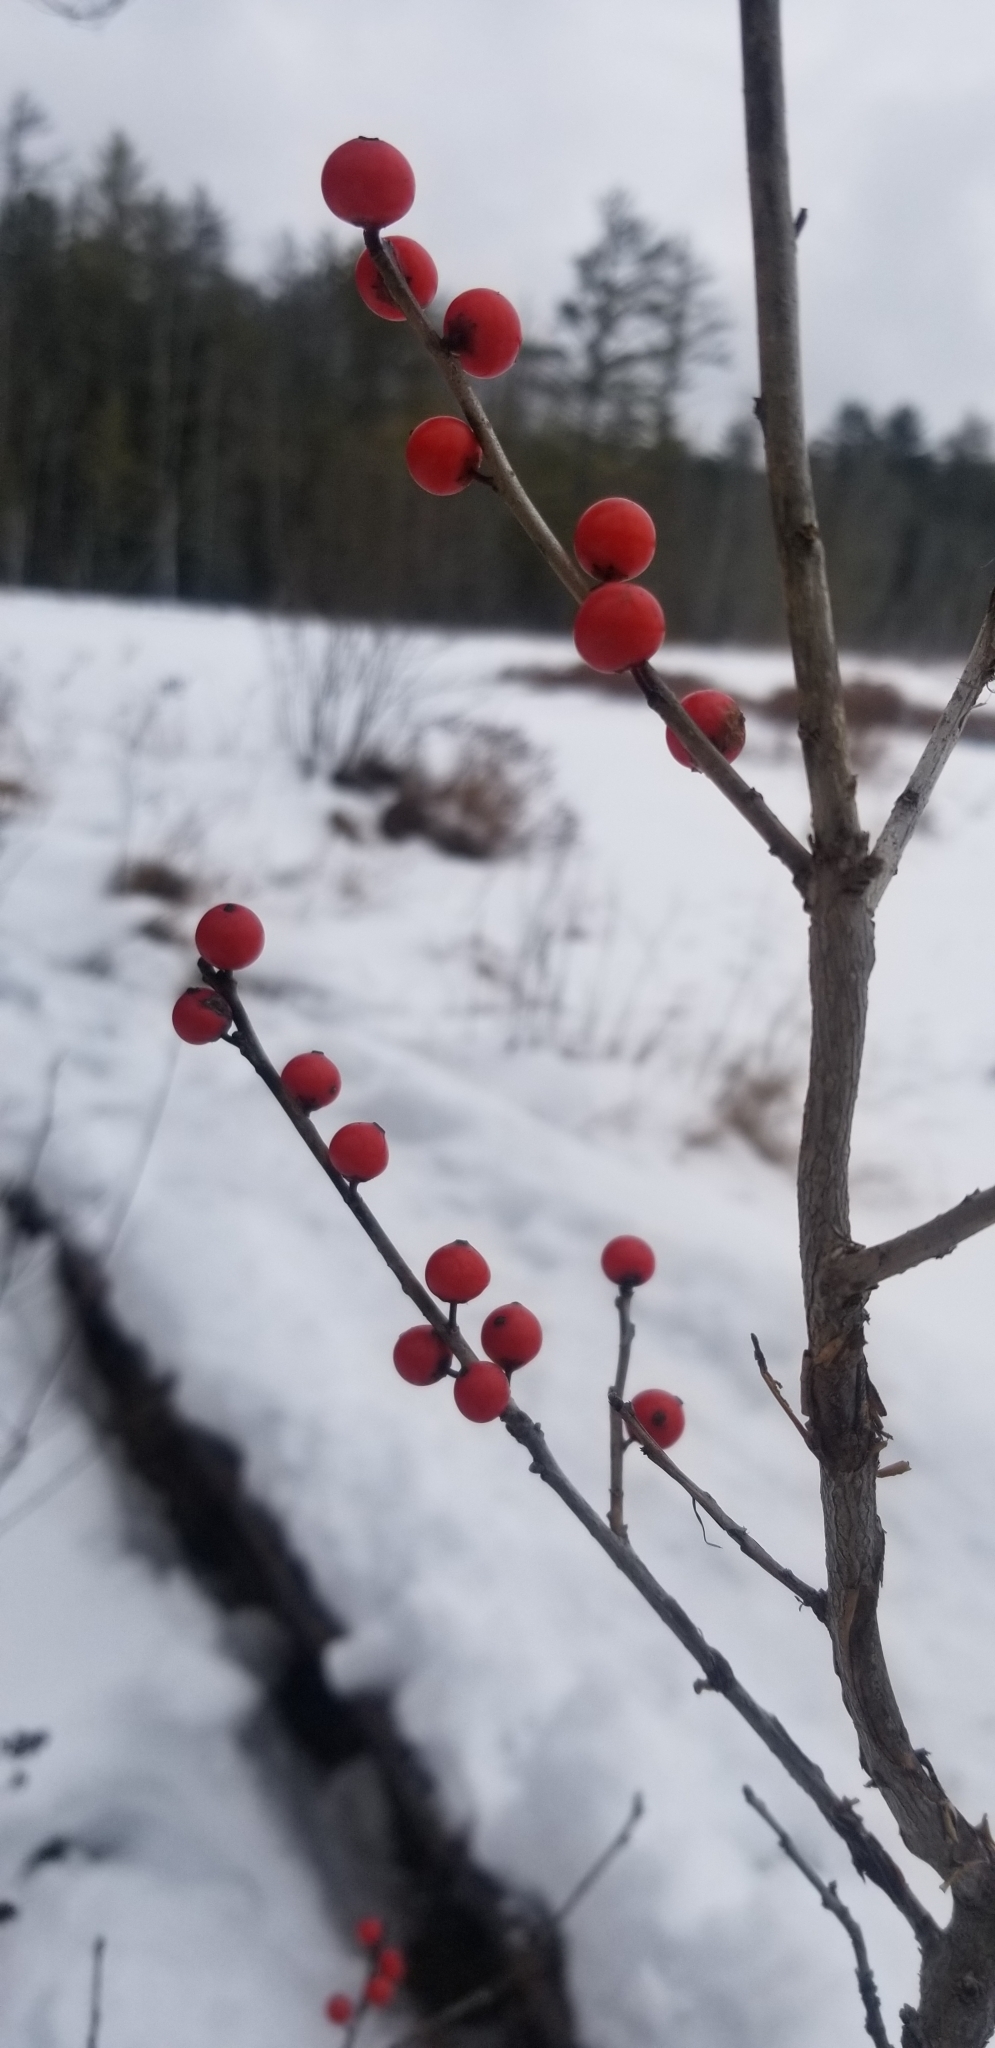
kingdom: Plantae
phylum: Tracheophyta
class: Magnoliopsida
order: Aquifoliales
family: Aquifoliaceae
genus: Ilex
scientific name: Ilex verticillata
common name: Virginia winterberry
